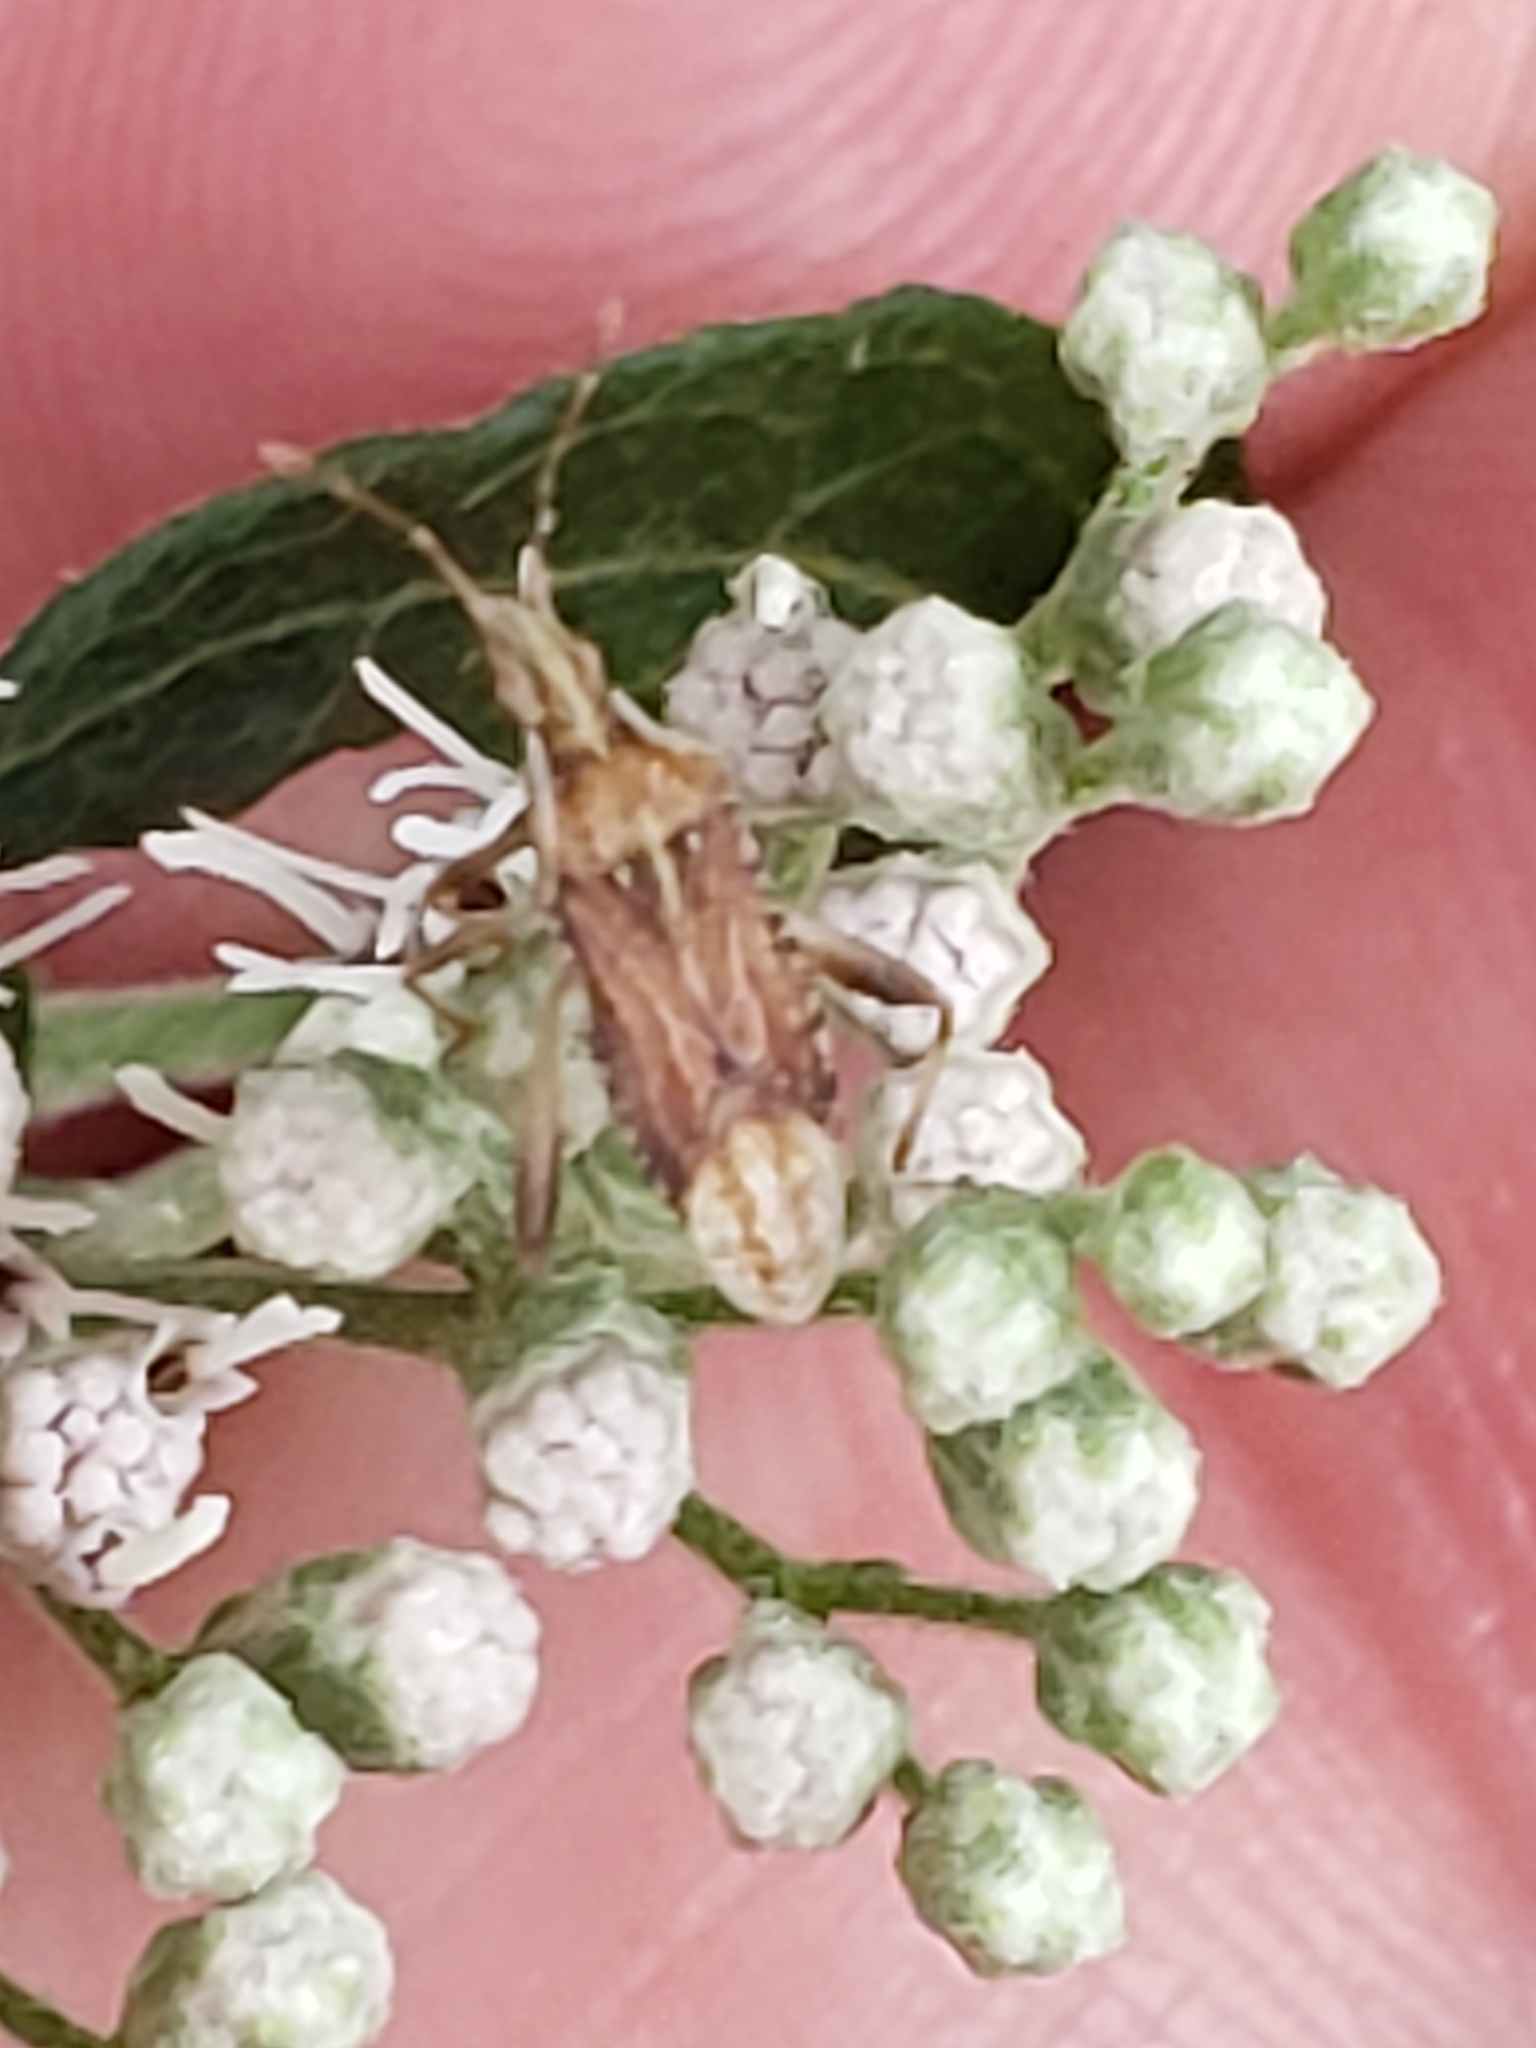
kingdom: Animalia
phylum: Arthropoda
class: Insecta
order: Hemiptera
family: Rhopalidae
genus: Harmostes
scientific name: Harmostes fraterculus
